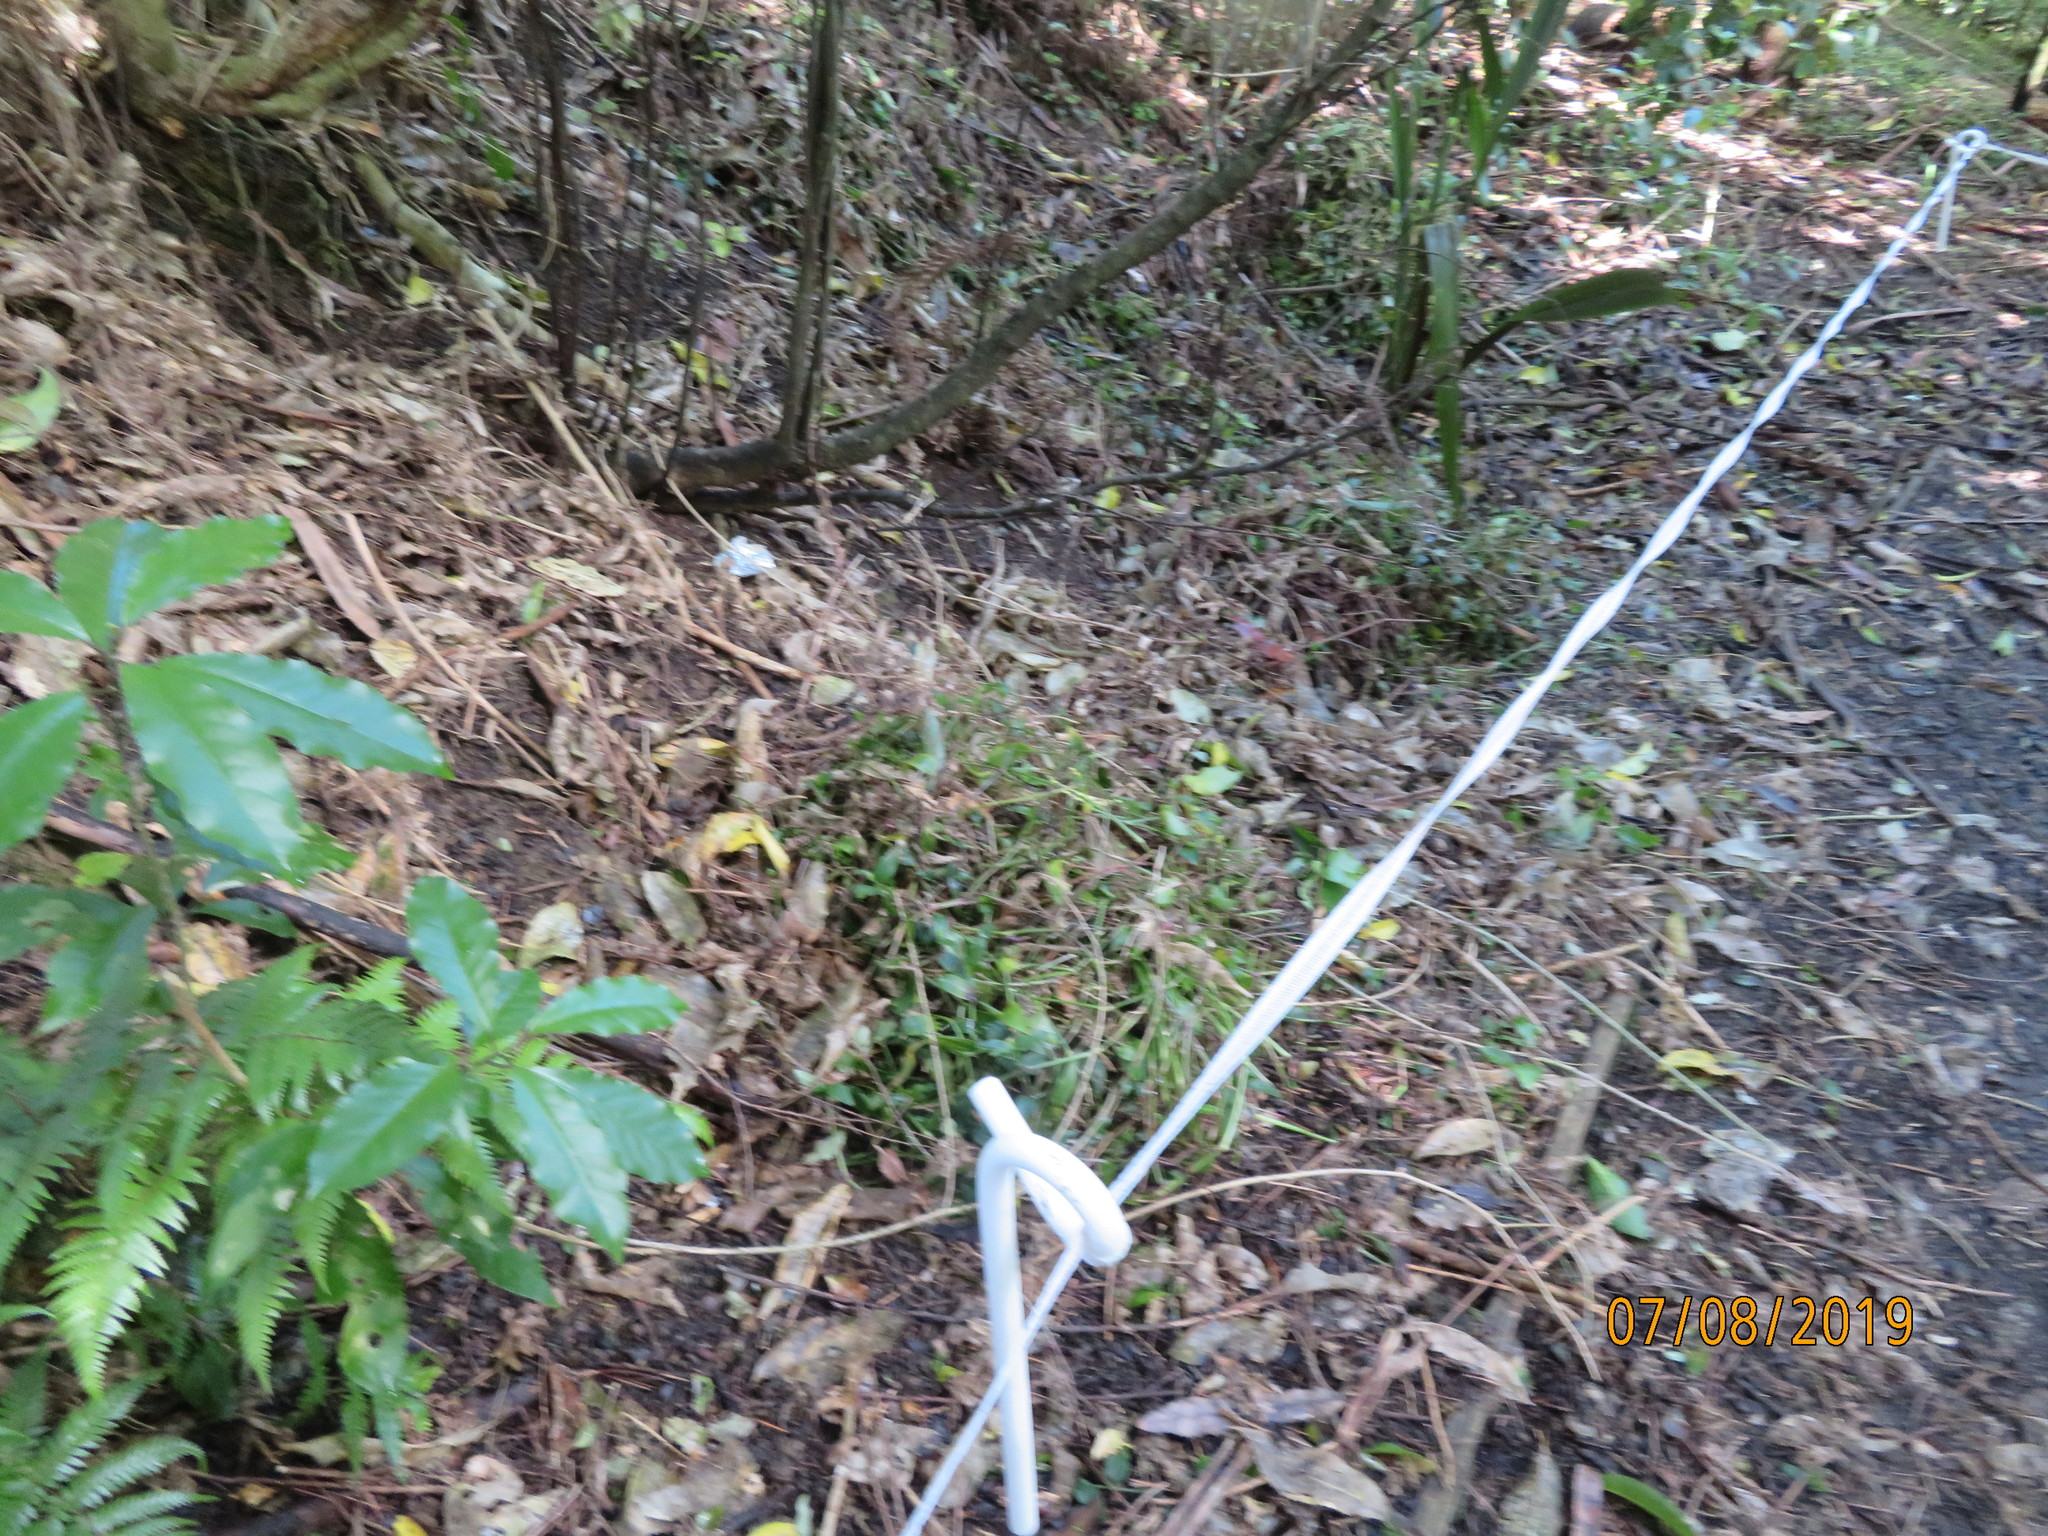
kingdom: Plantae
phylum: Tracheophyta
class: Liliopsida
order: Commelinales
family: Commelinaceae
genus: Tradescantia
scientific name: Tradescantia fluminensis
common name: Wandering-jew
